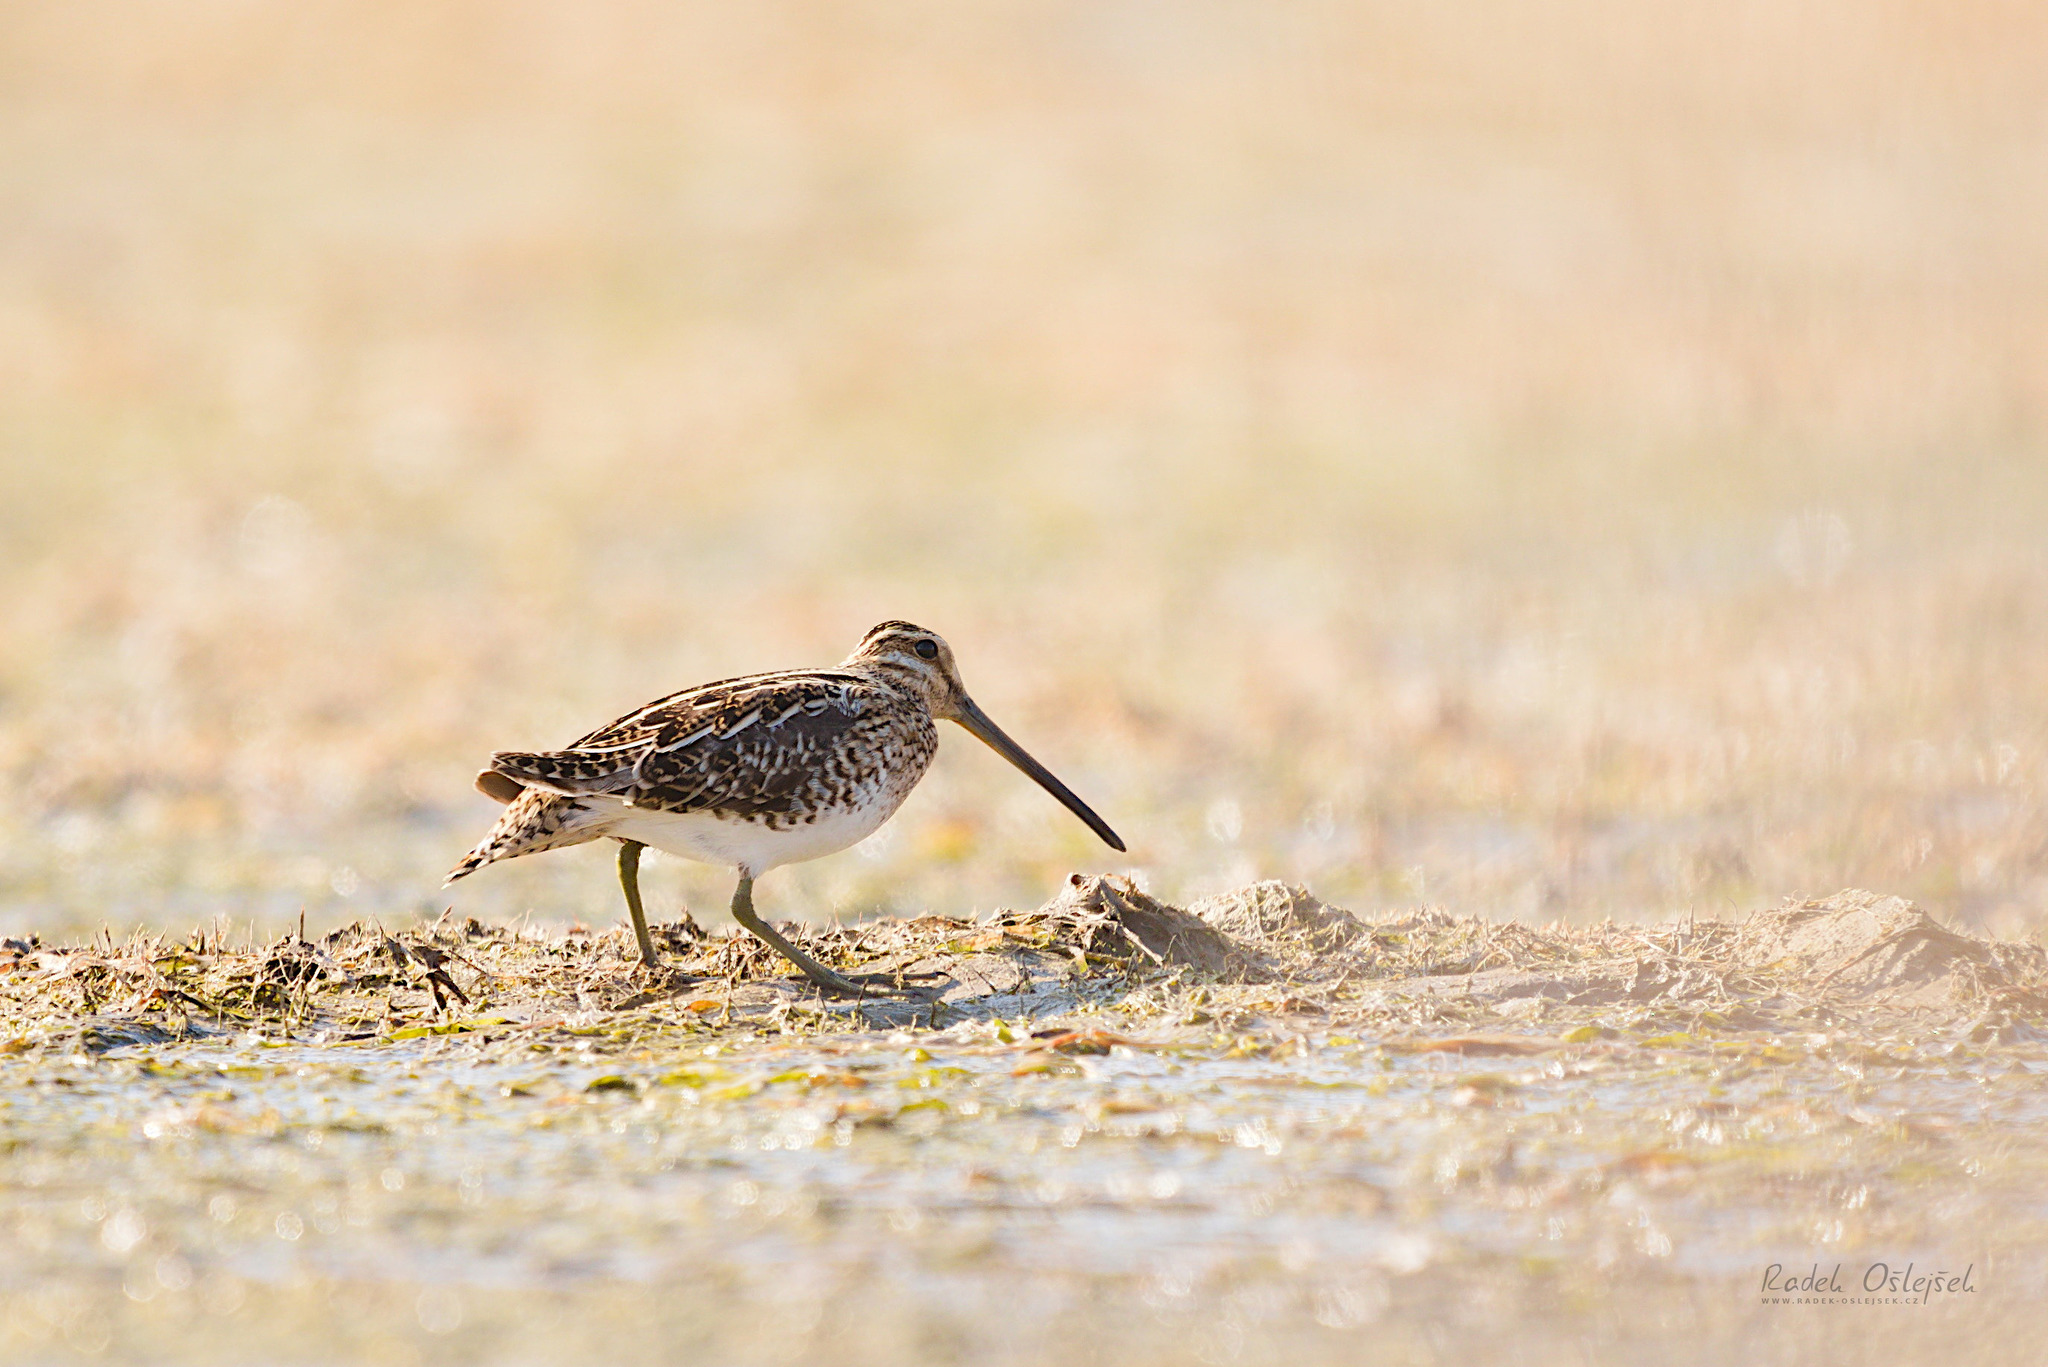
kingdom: Animalia
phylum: Chordata
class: Aves
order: Charadriiformes
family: Scolopacidae
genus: Gallinago
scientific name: Gallinago gallinago
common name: Common snipe
